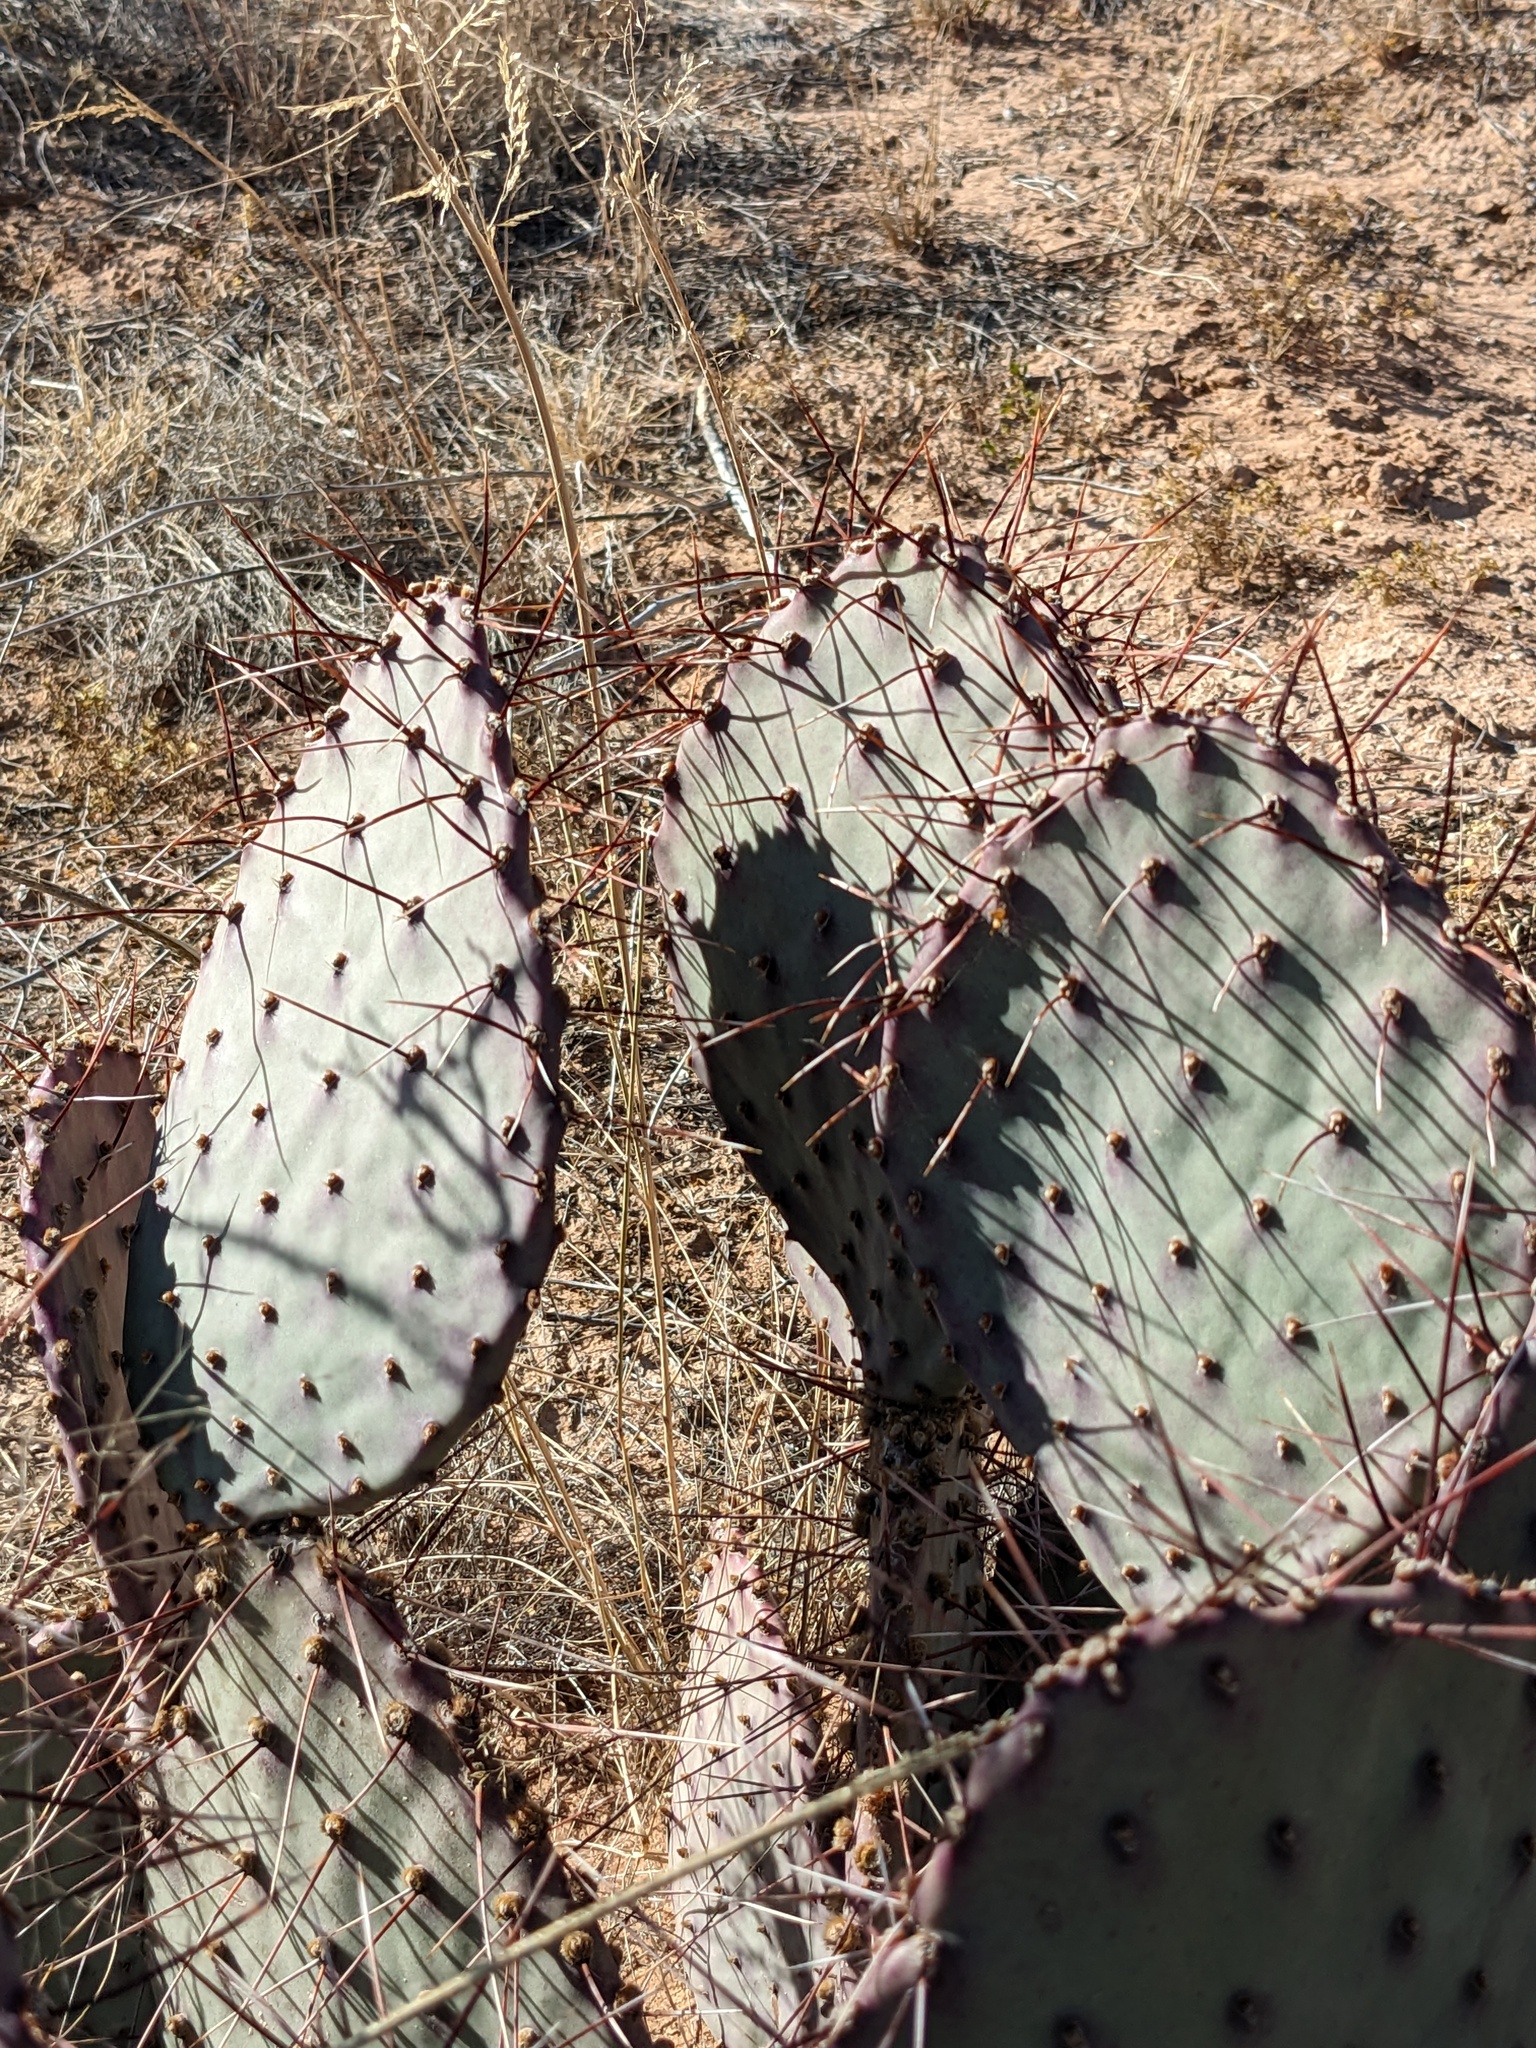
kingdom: Plantae
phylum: Tracheophyta
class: Magnoliopsida
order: Caryophyllales
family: Cactaceae
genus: Opuntia
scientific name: Opuntia macrocentra
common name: Purple prickly-pear
